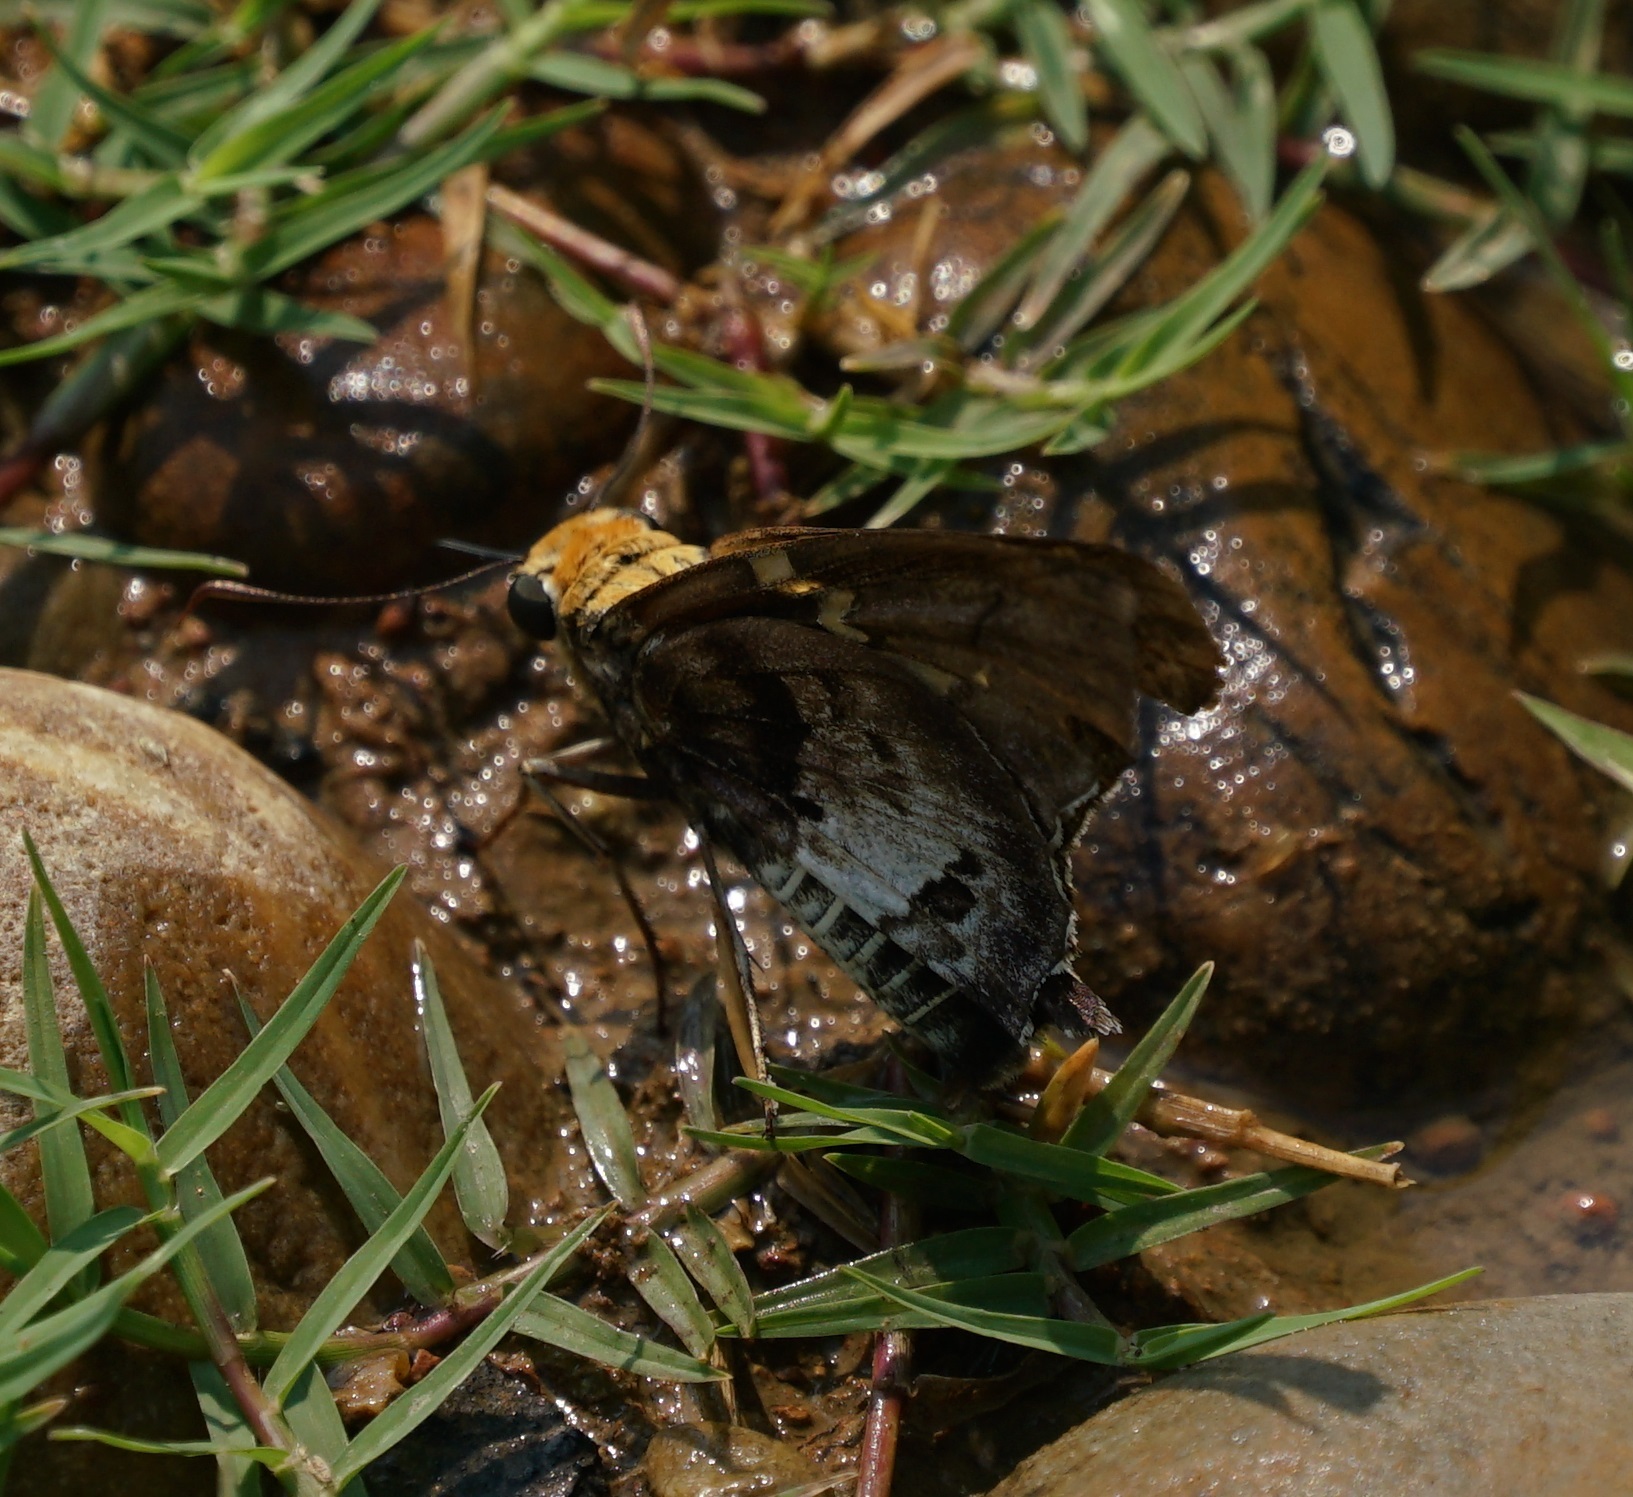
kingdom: Animalia
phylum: Arthropoda
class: Insecta
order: Lepidoptera
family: Hesperiidae
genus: Proteides
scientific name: Proteides mercurius
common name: Mercurial skipper
